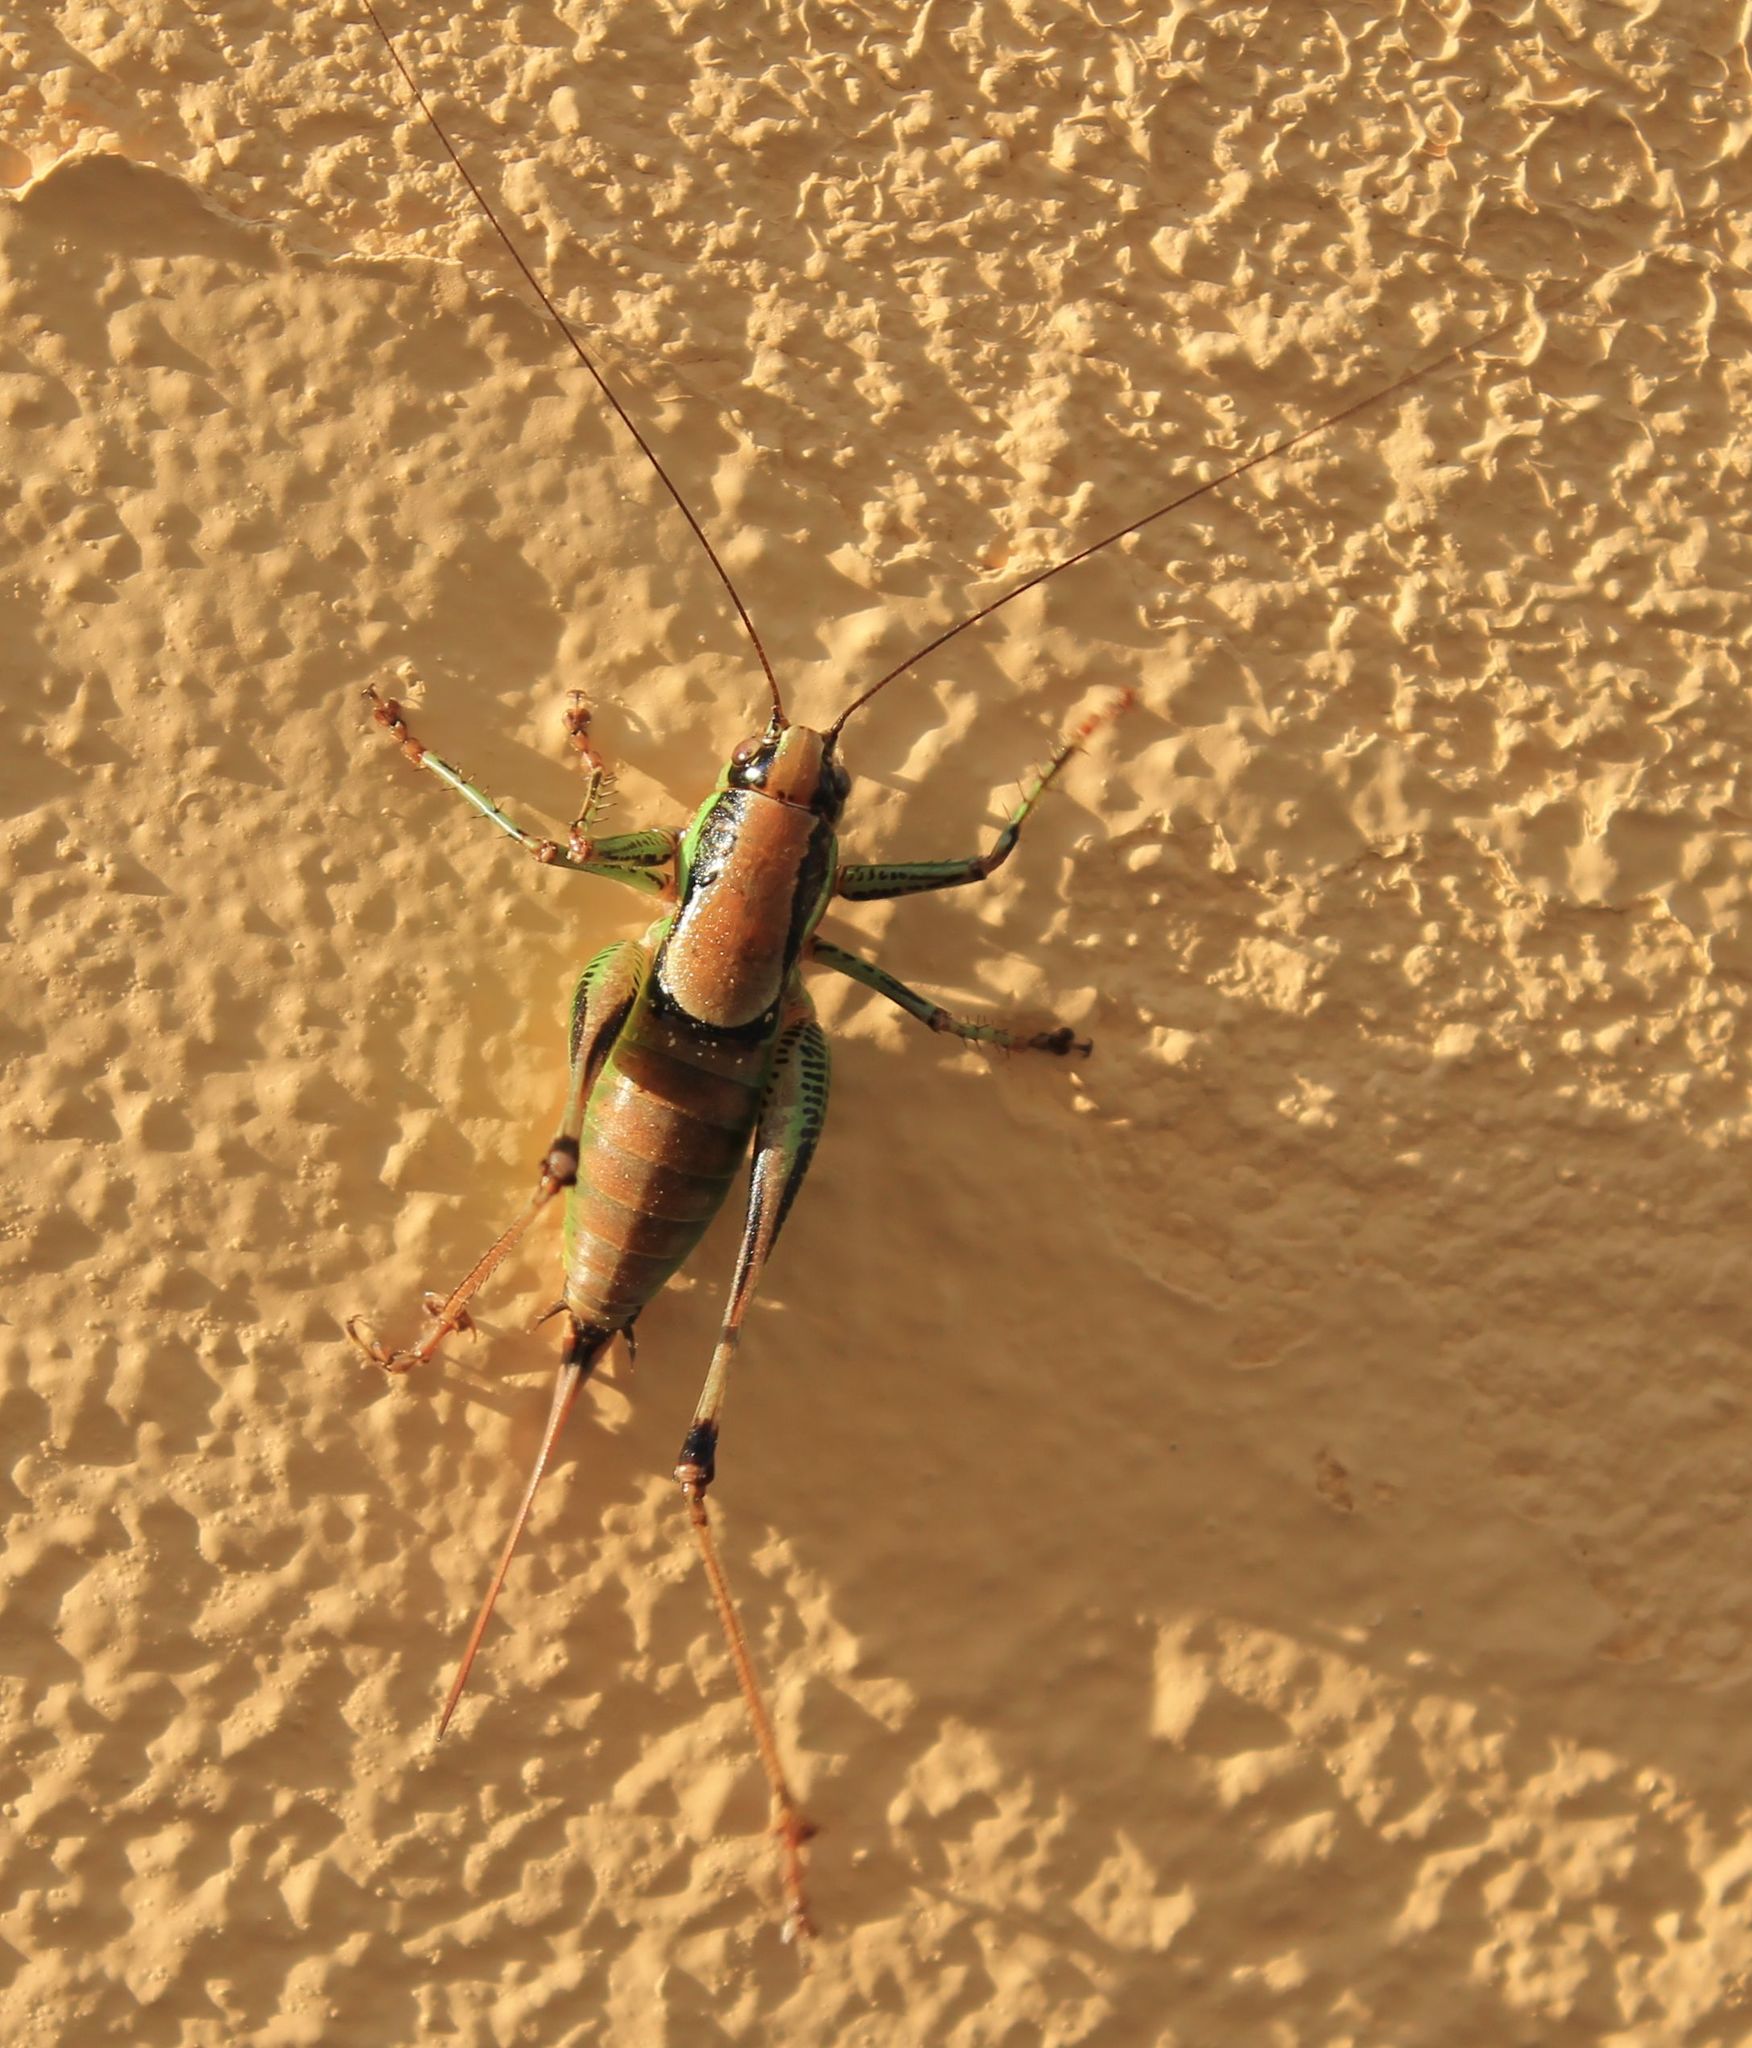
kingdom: Animalia
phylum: Arthropoda
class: Insecta
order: Orthoptera
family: Tettigoniidae
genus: Eupholidoptera
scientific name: Eupholidoptera garganica
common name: Gargano marbled bush-cricket
